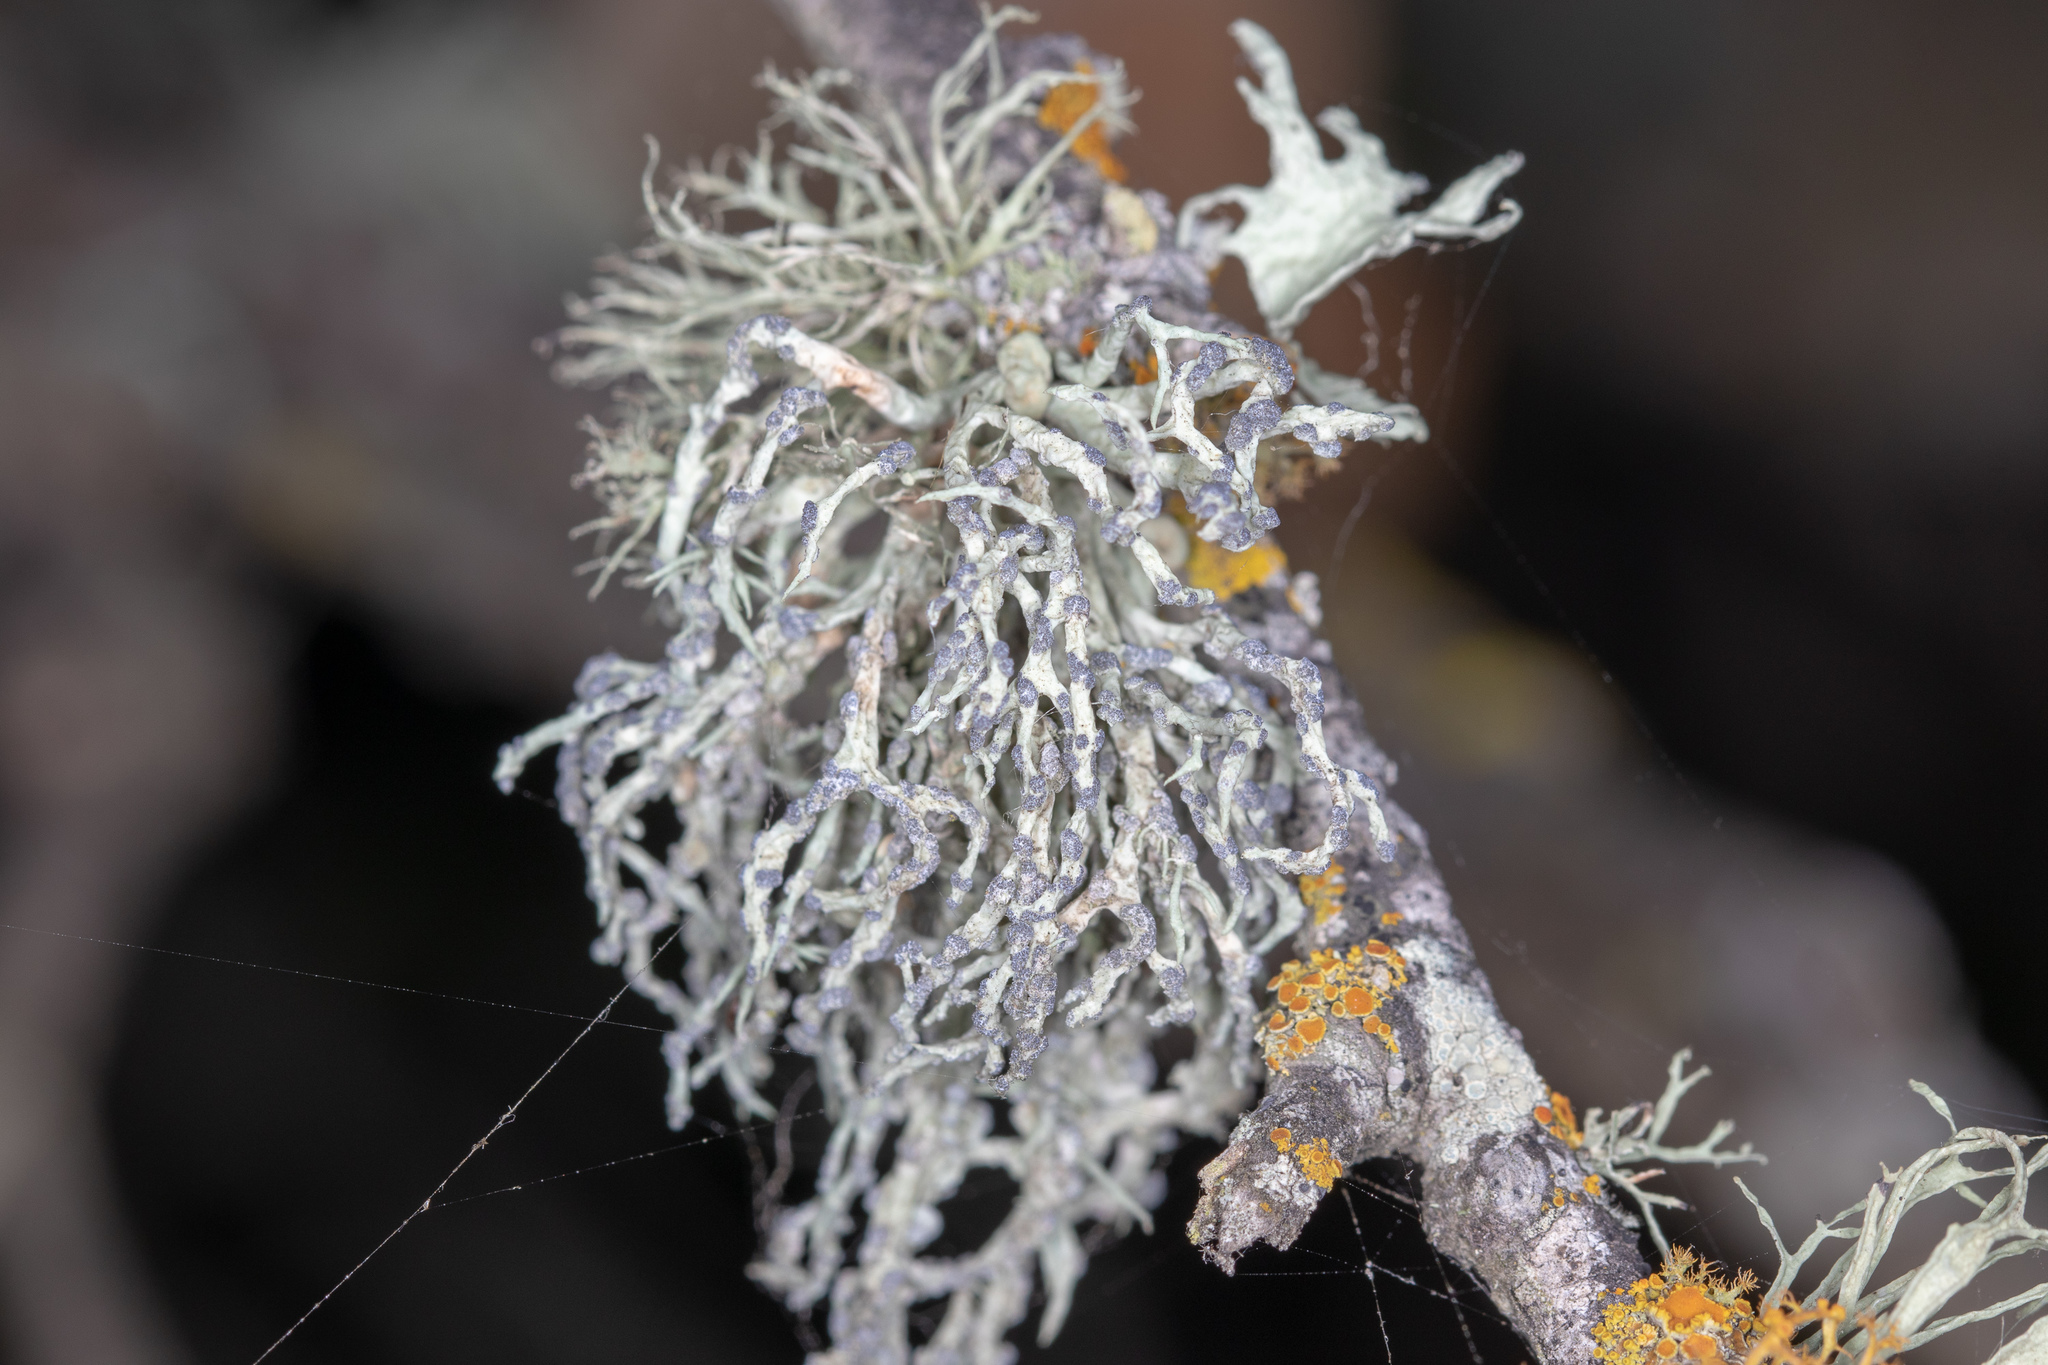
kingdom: Fungi
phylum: Ascomycota
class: Lecanoromycetes
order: Lecanorales
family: Ramalinaceae
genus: Niebla
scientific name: Niebla cephalota
